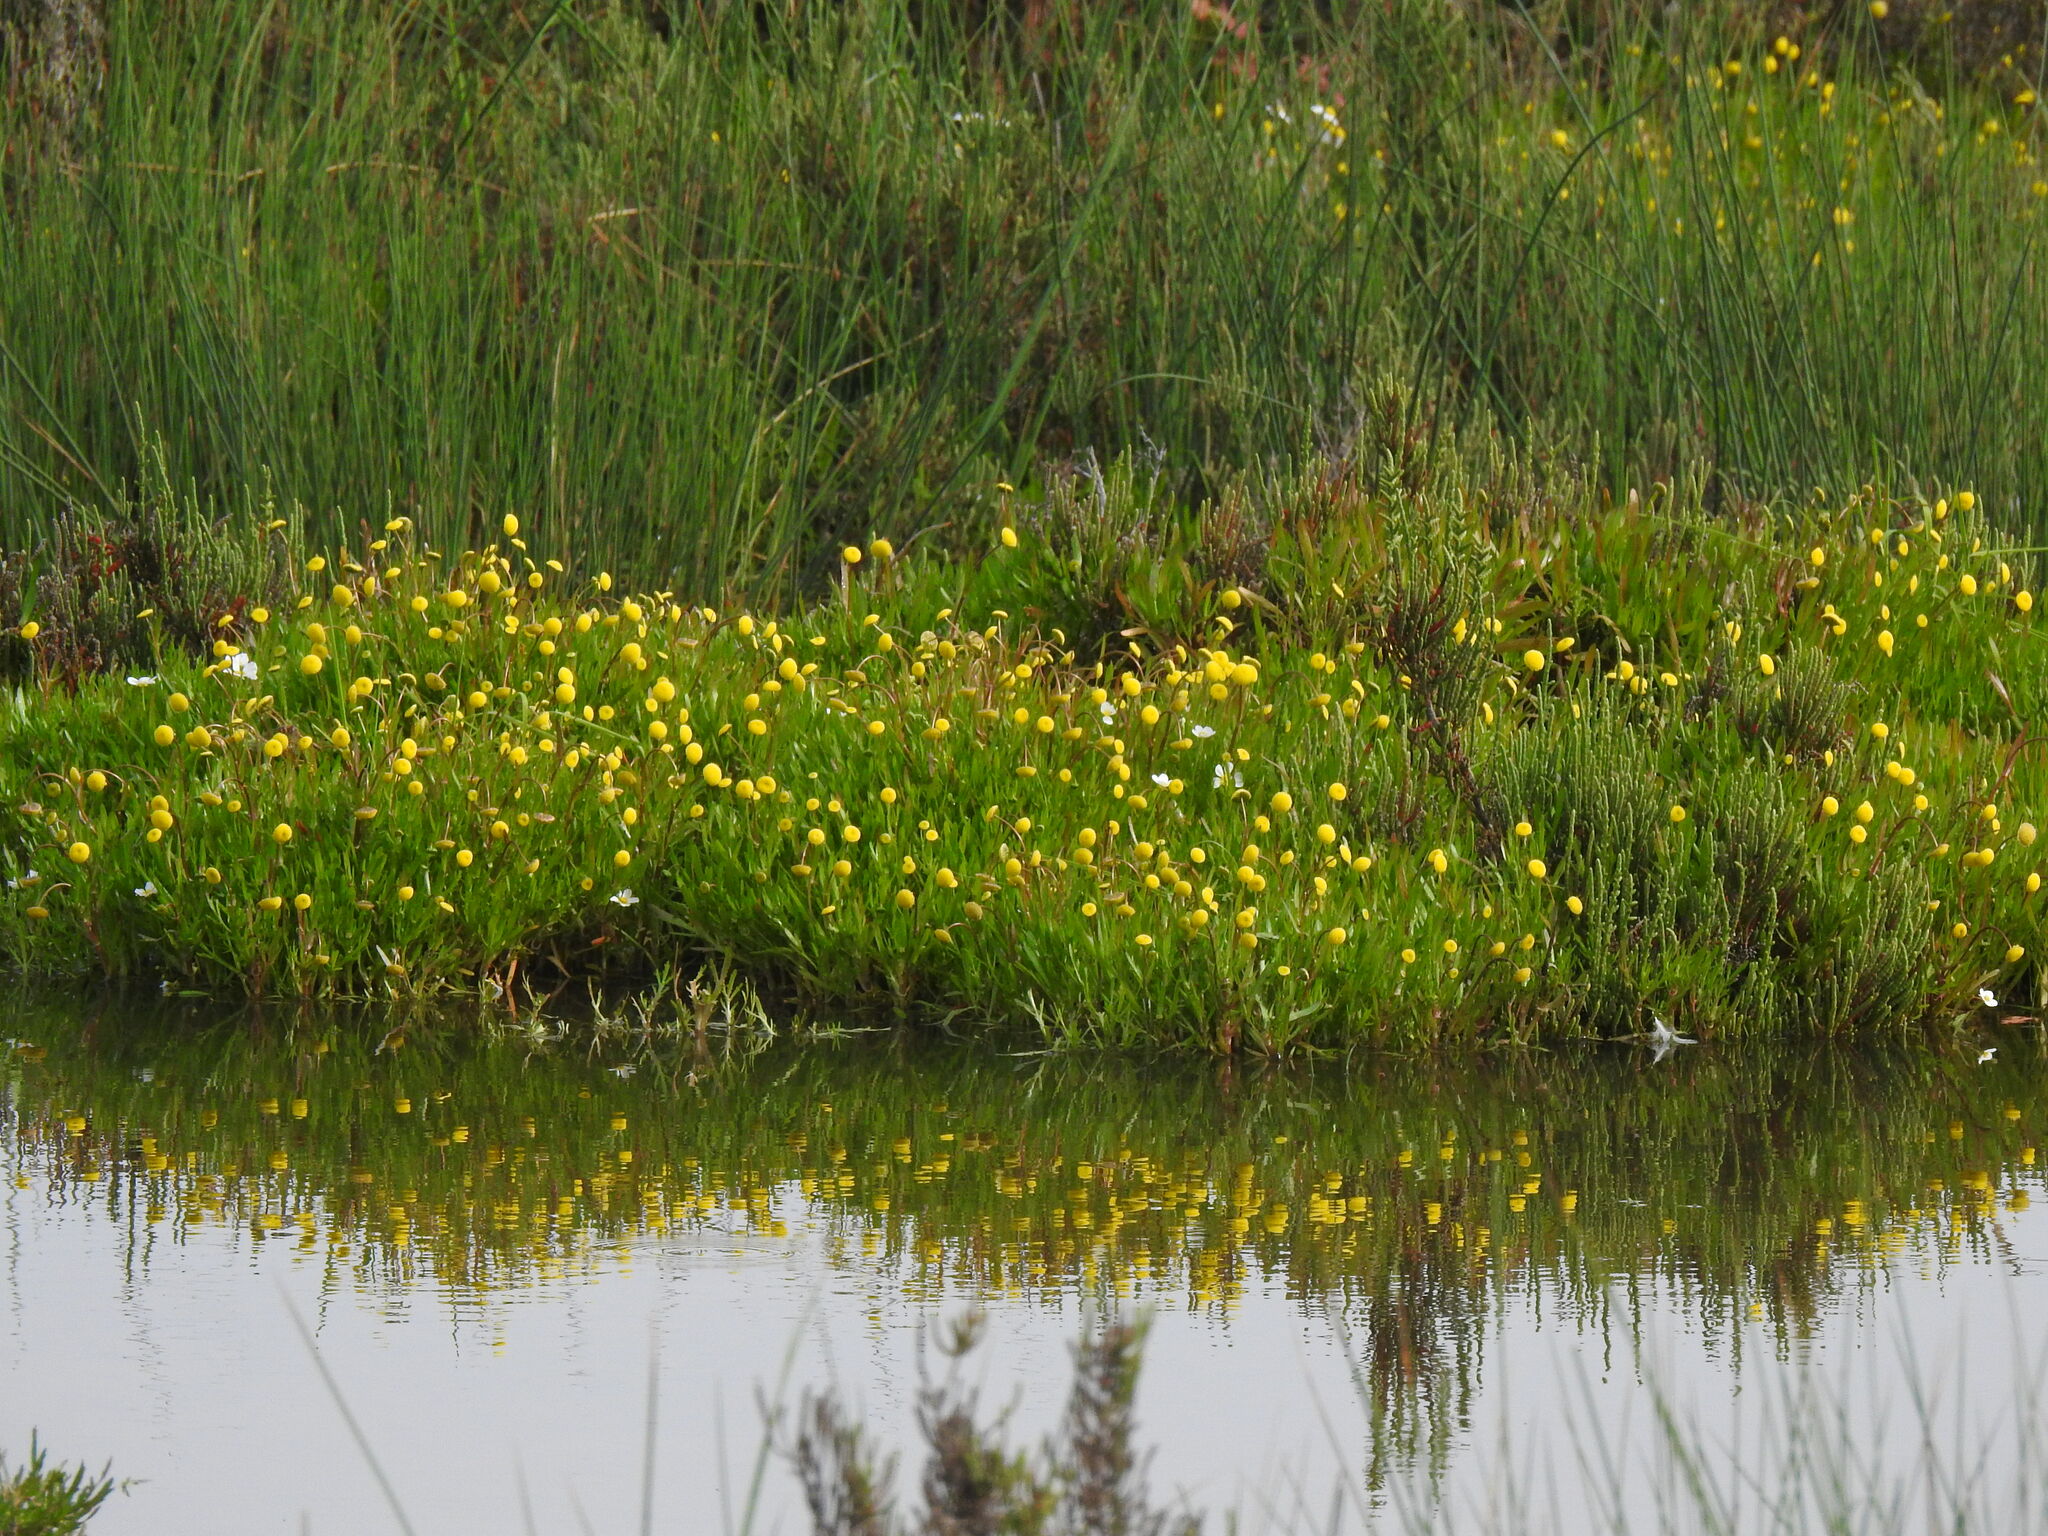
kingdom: Plantae
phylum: Tracheophyta
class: Magnoliopsida
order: Asterales
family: Asteraceae
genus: Cotula
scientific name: Cotula coronopifolia
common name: Buttonweed
